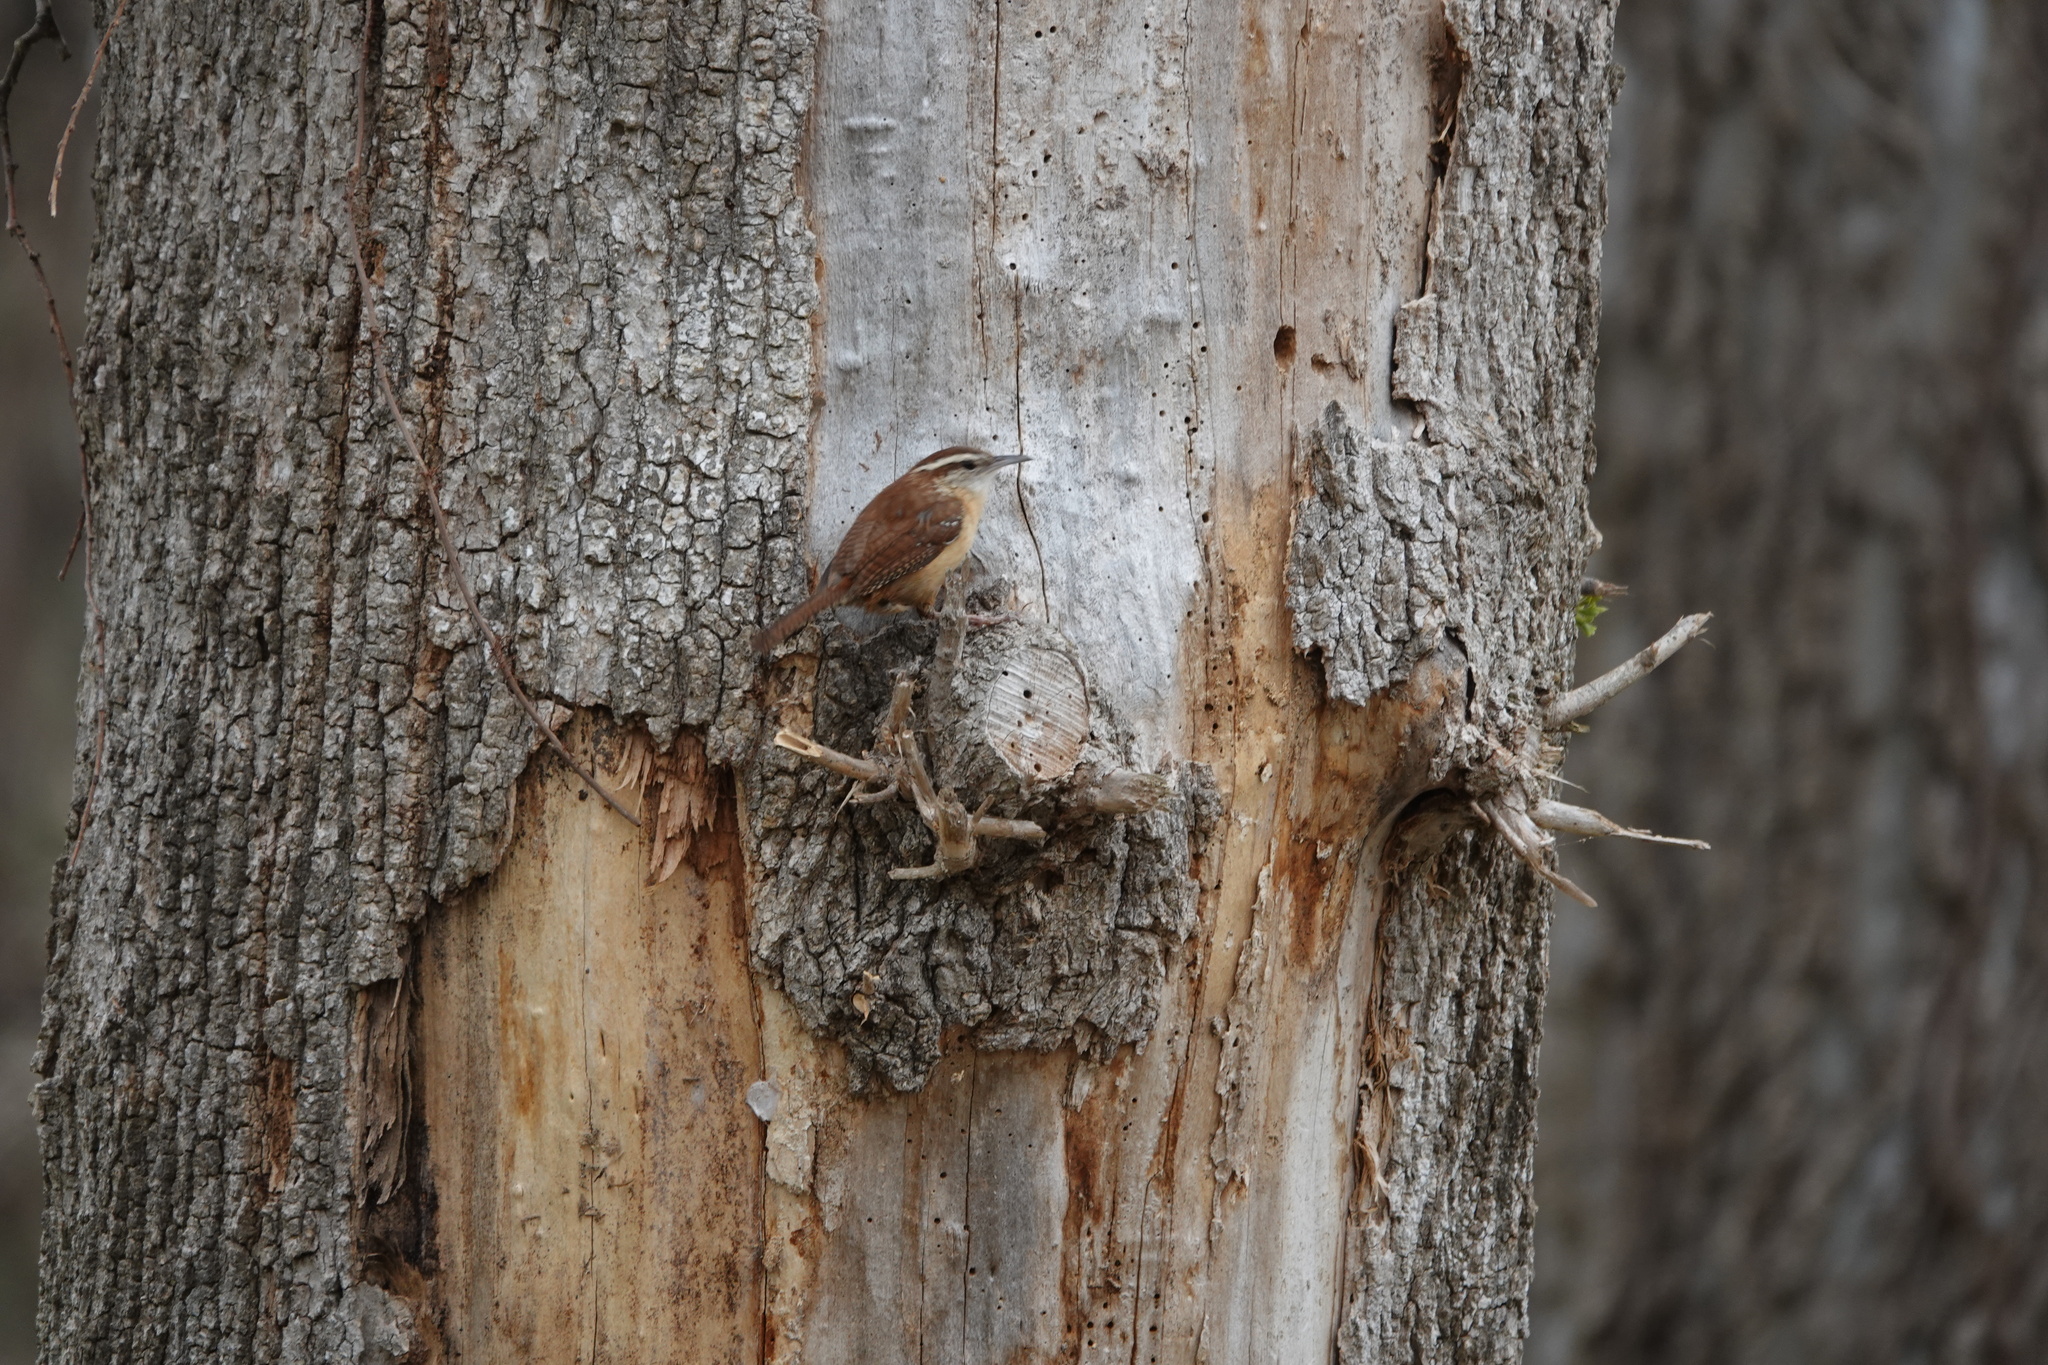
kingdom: Animalia
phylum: Chordata
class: Aves
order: Passeriformes
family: Troglodytidae
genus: Thryothorus
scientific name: Thryothorus ludovicianus
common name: Carolina wren
